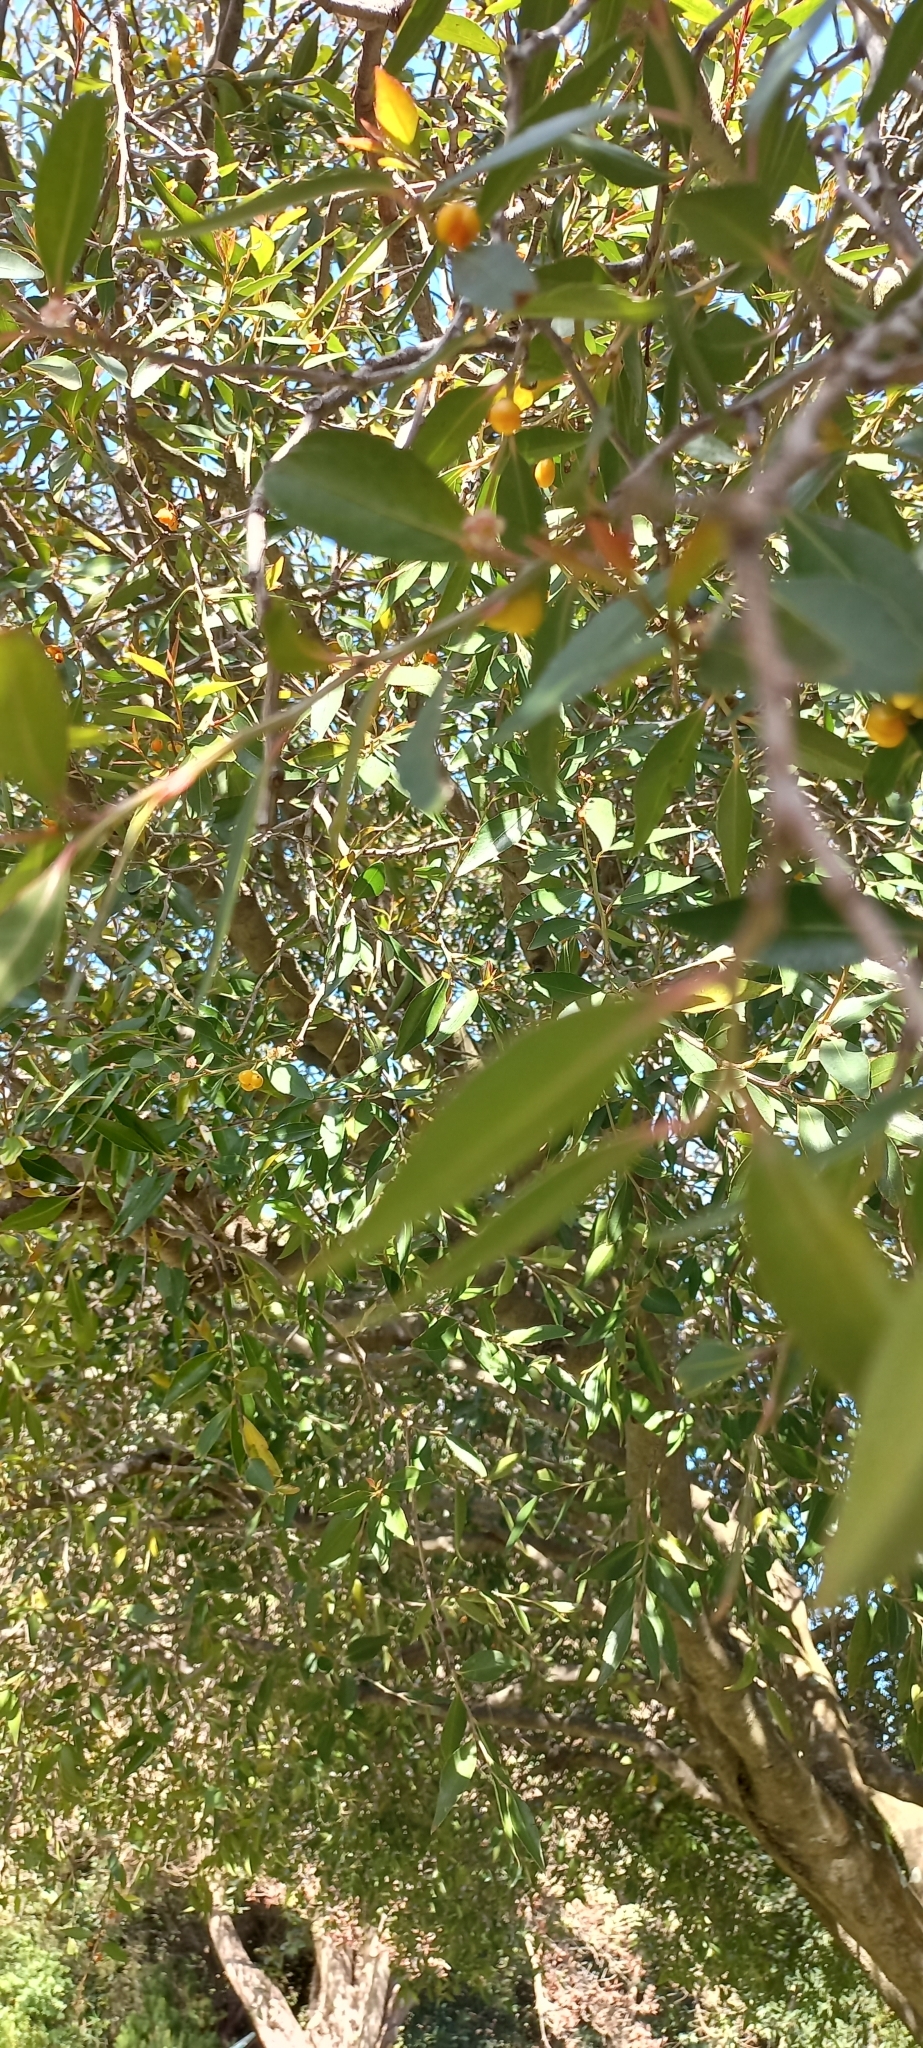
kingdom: Plantae
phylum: Tracheophyta
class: Magnoliopsida
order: Celastrales
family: Celastraceae
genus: Gymnosporia
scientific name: Gymnosporia acuminata
